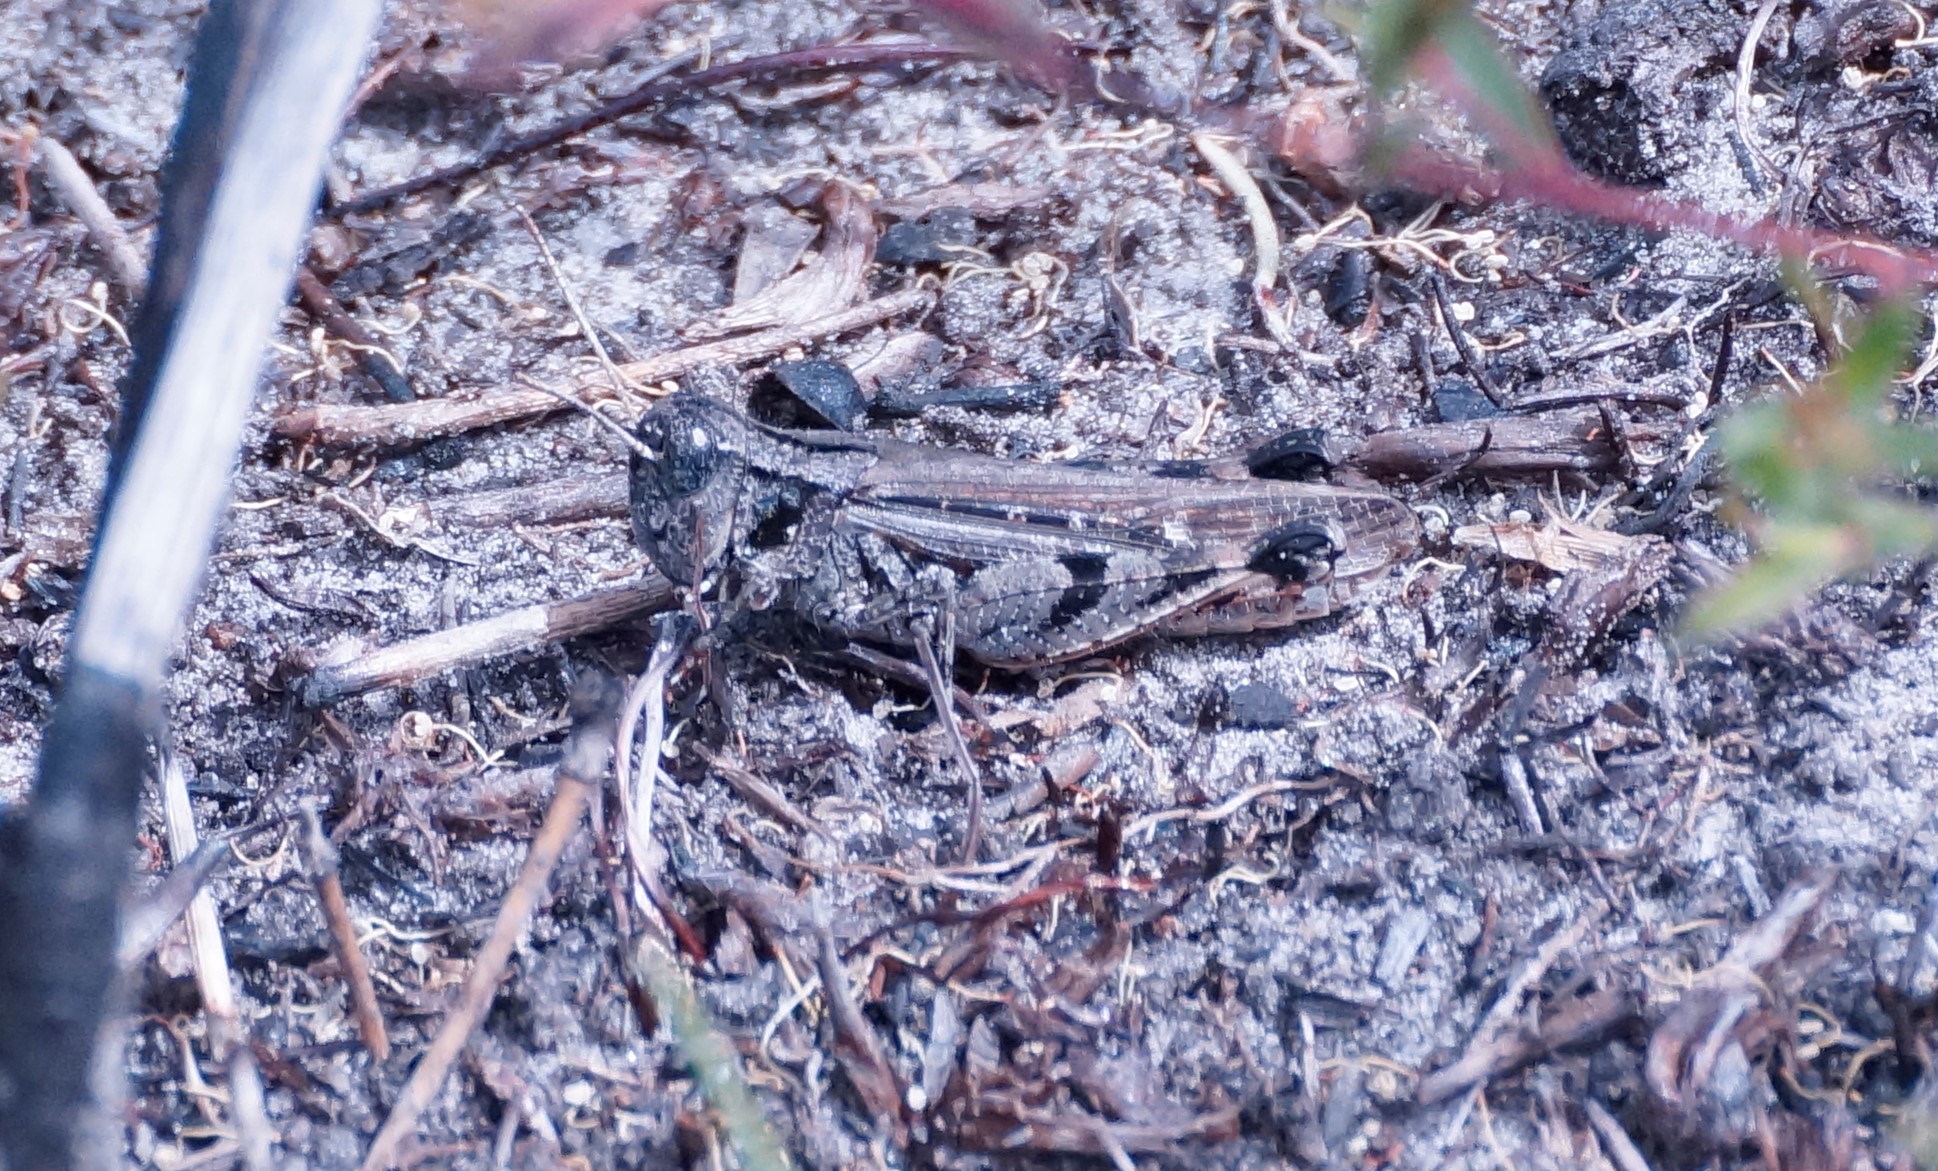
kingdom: Animalia
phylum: Arthropoda
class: Insecta
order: Orthoptera
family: Acrididae
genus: Exarna
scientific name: Exarna includens
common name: Red-legged exarna
